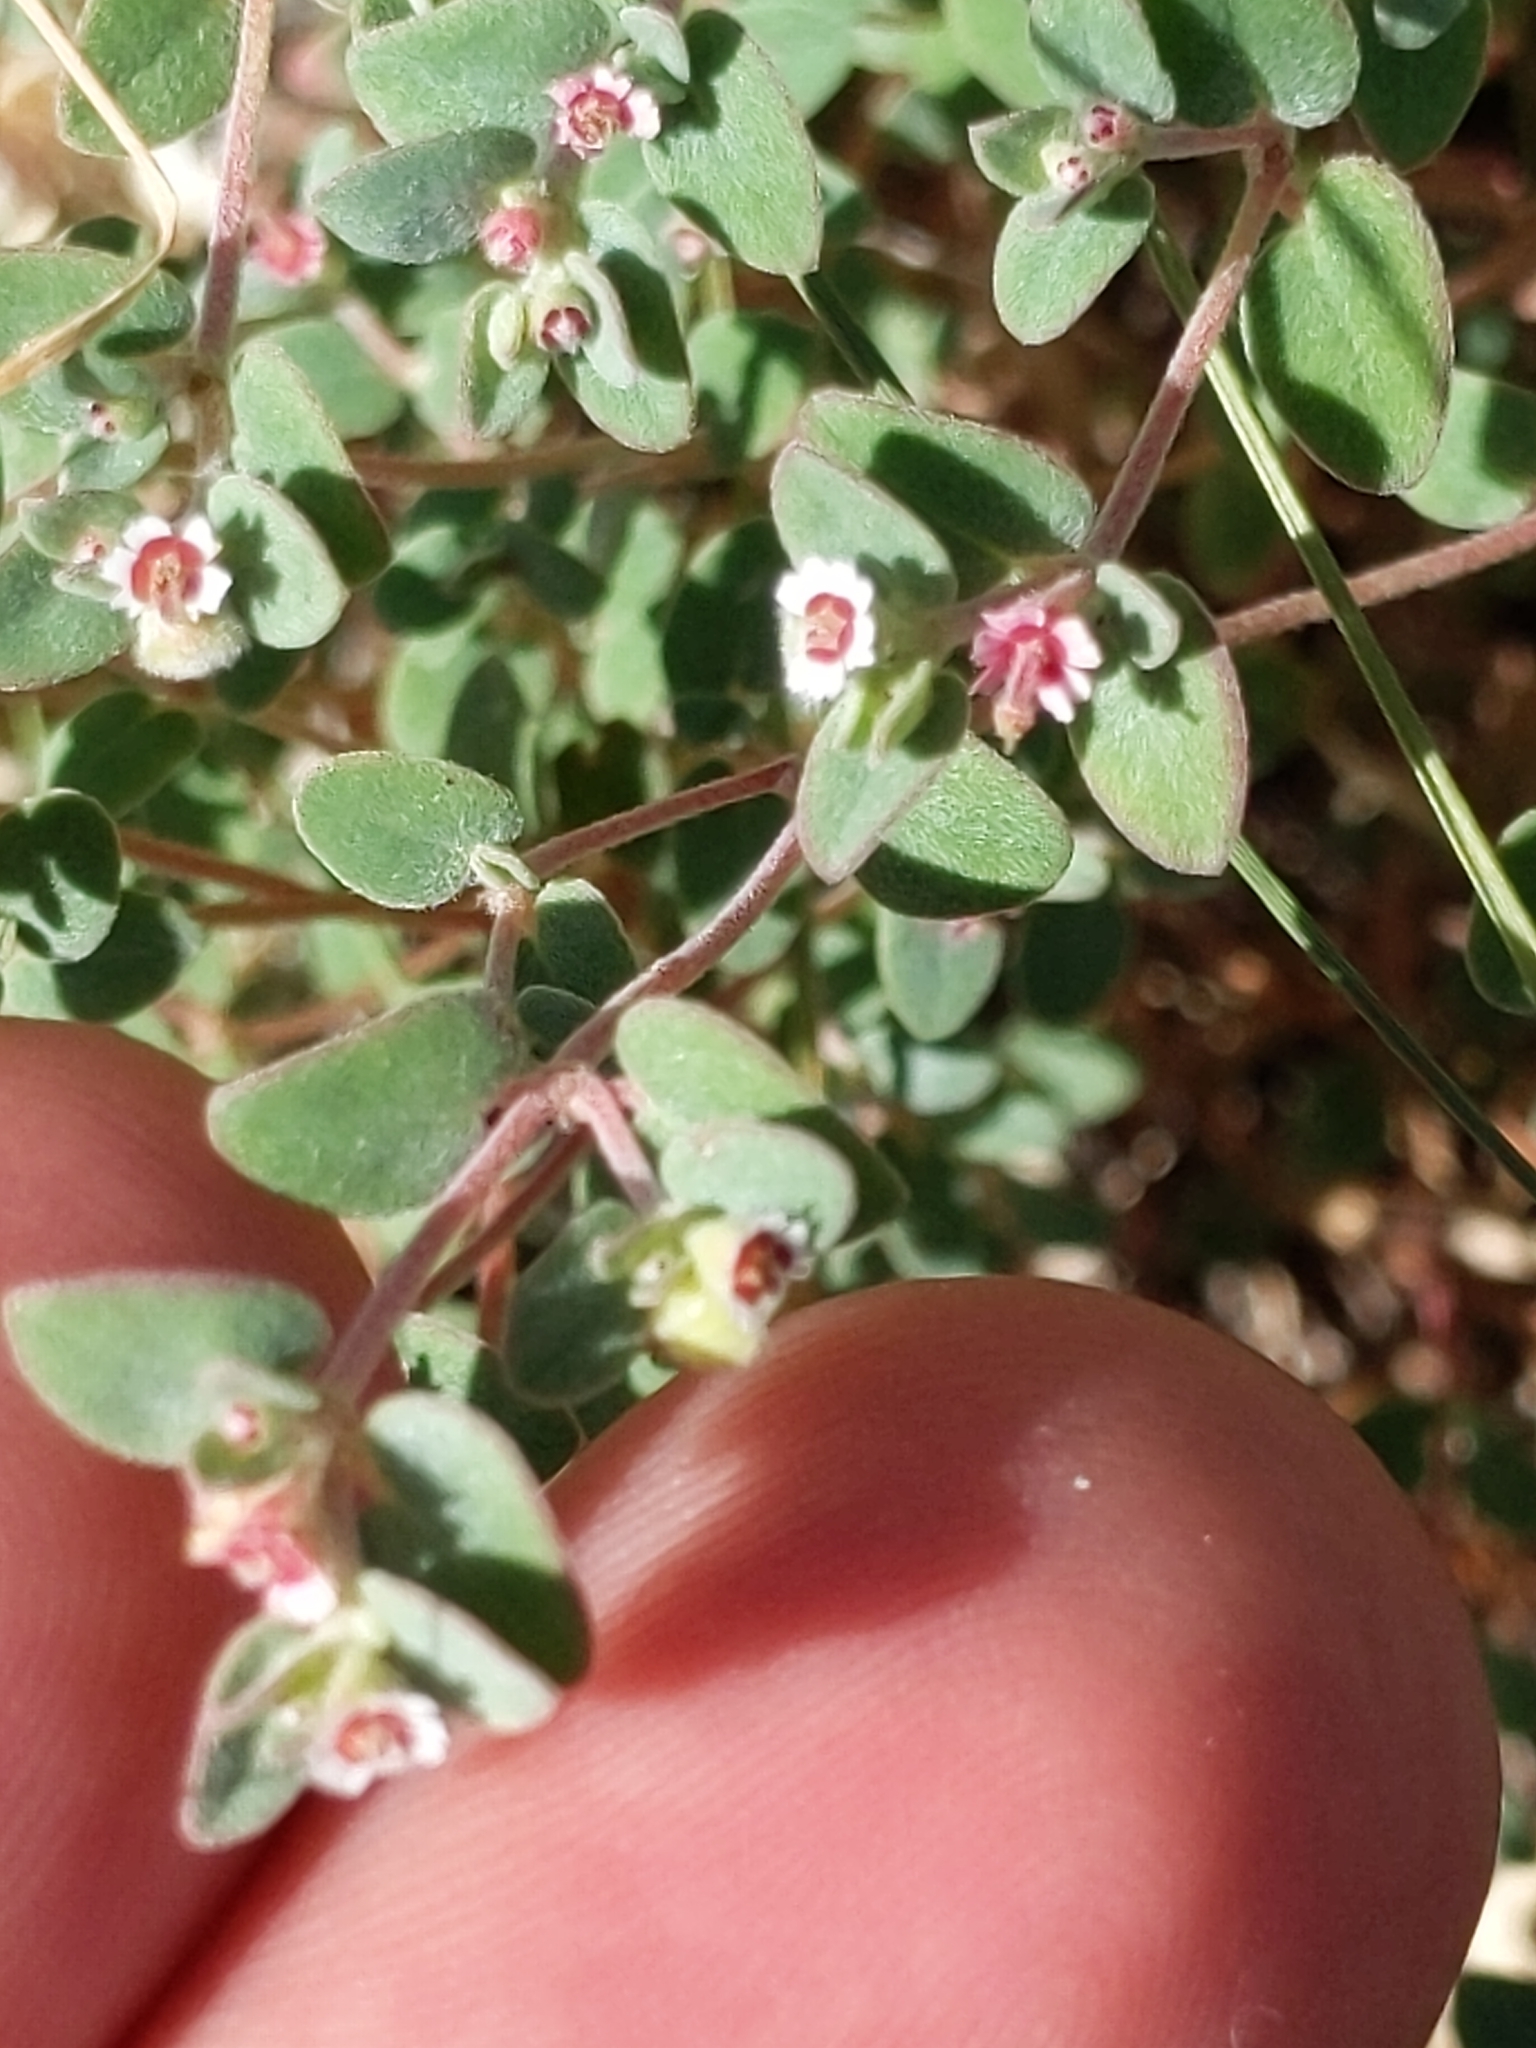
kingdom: Plantae
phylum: Tracheophyta
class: Magnoliopsida
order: Malpighiales
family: Euphorbiaceae
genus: Euphorbia
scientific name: Euphorbia melanadenia
